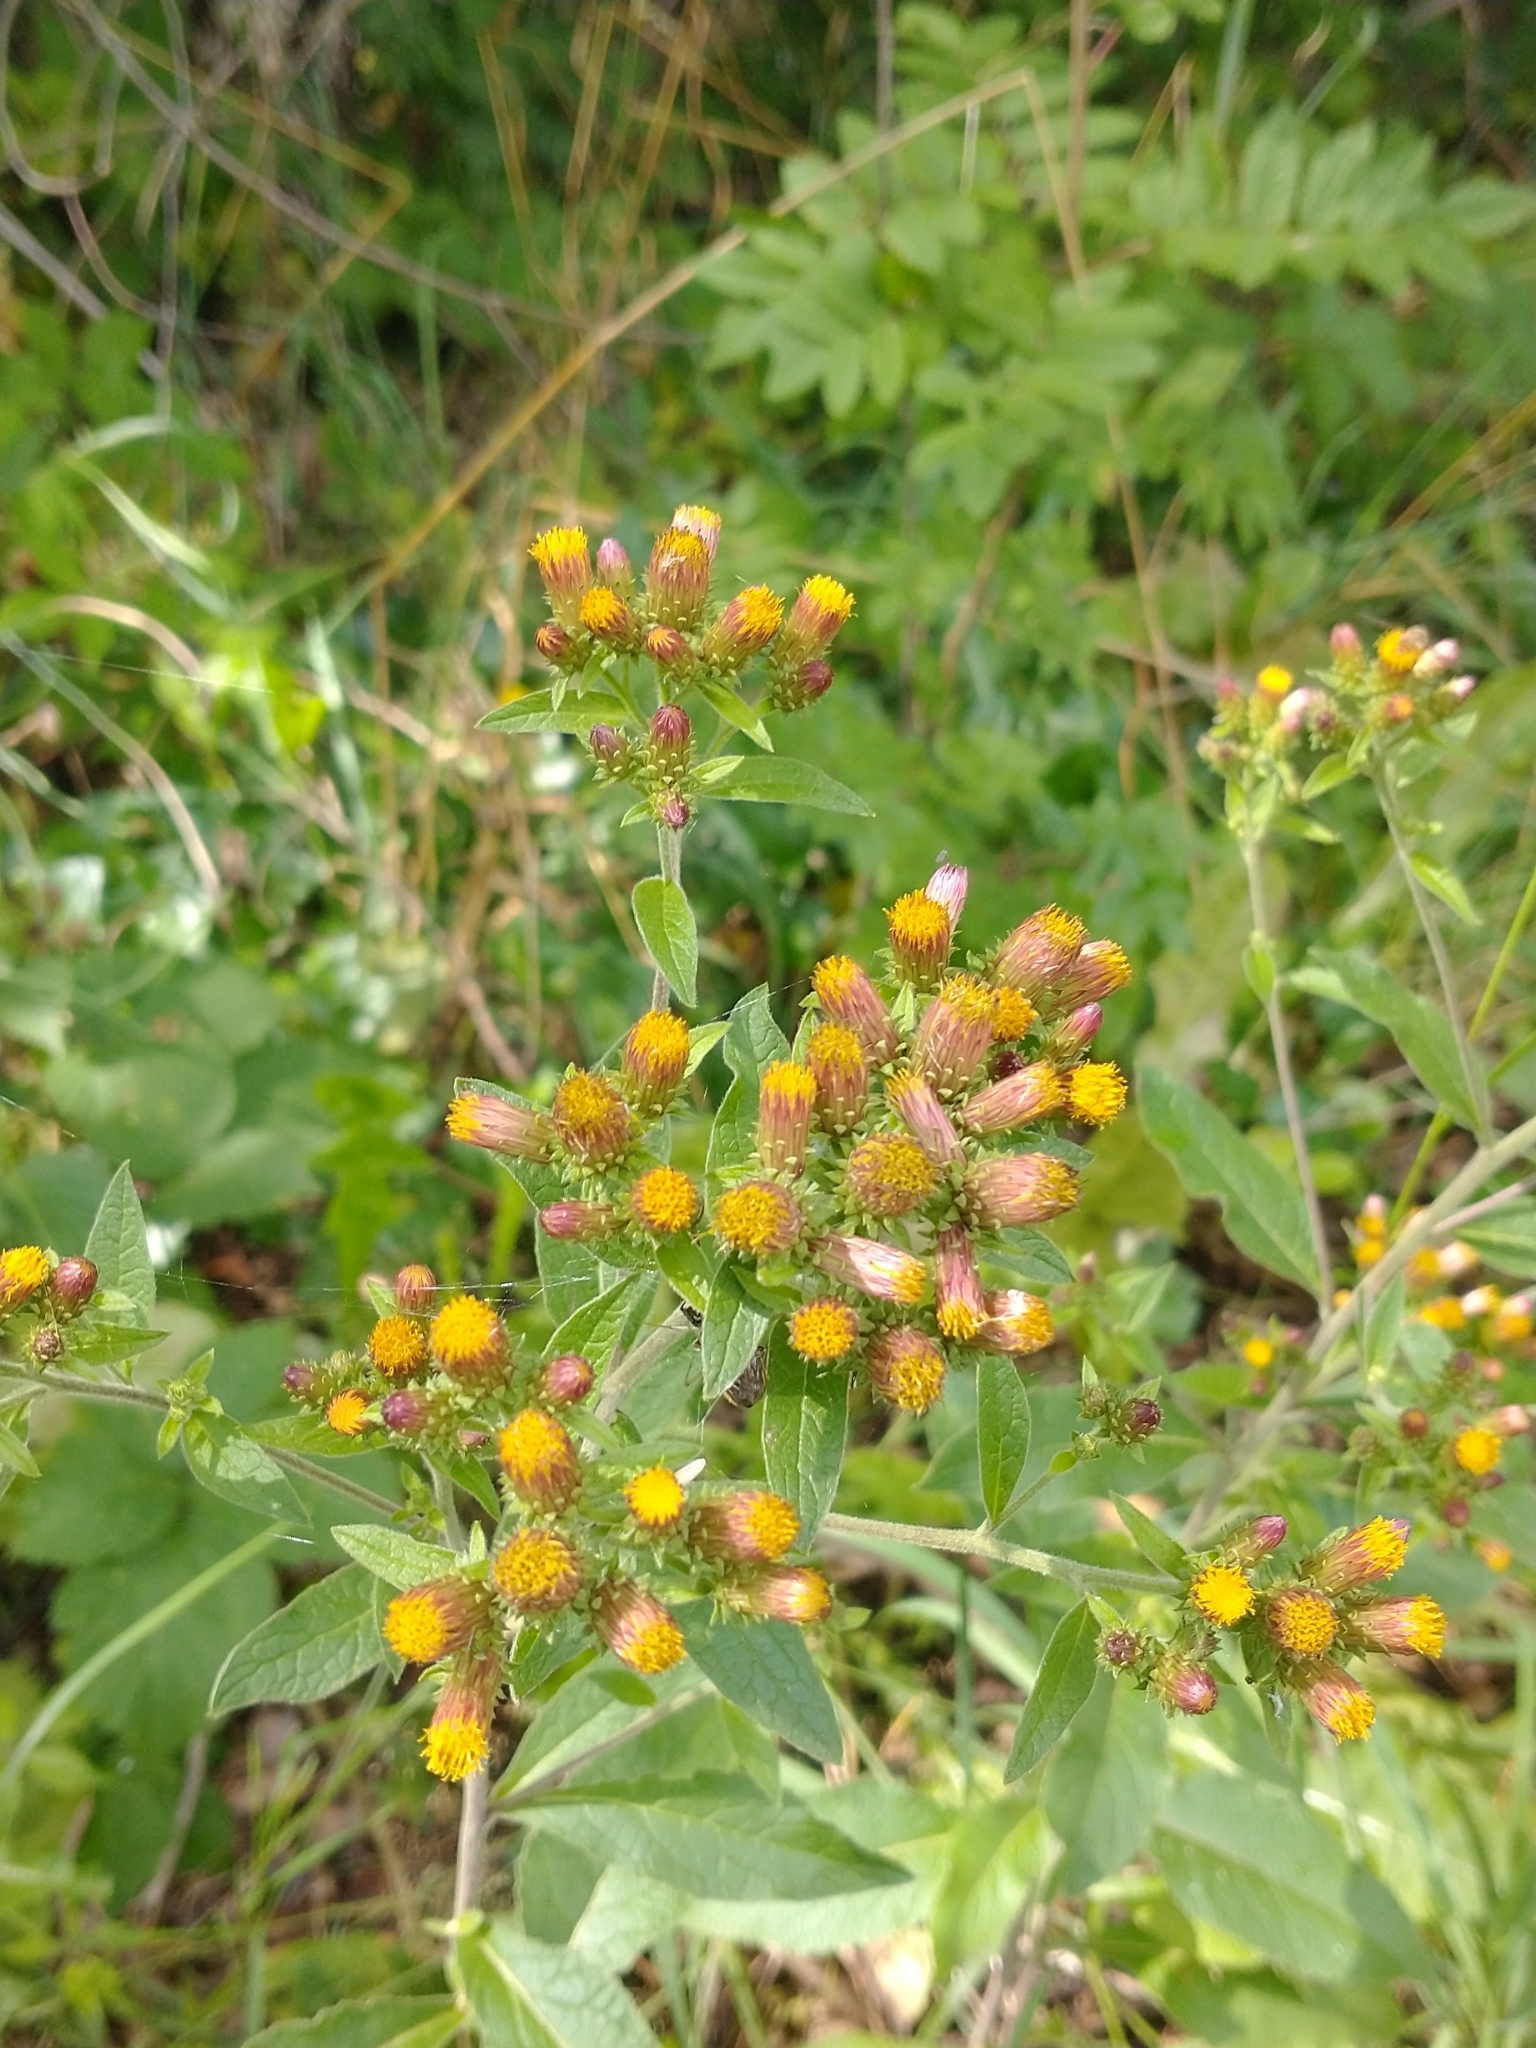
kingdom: Plantae
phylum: Tracheophyta
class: Magnoliopsida
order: Asterales
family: Asteraceae
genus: Pentanema
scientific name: Pentanema squarrosum
